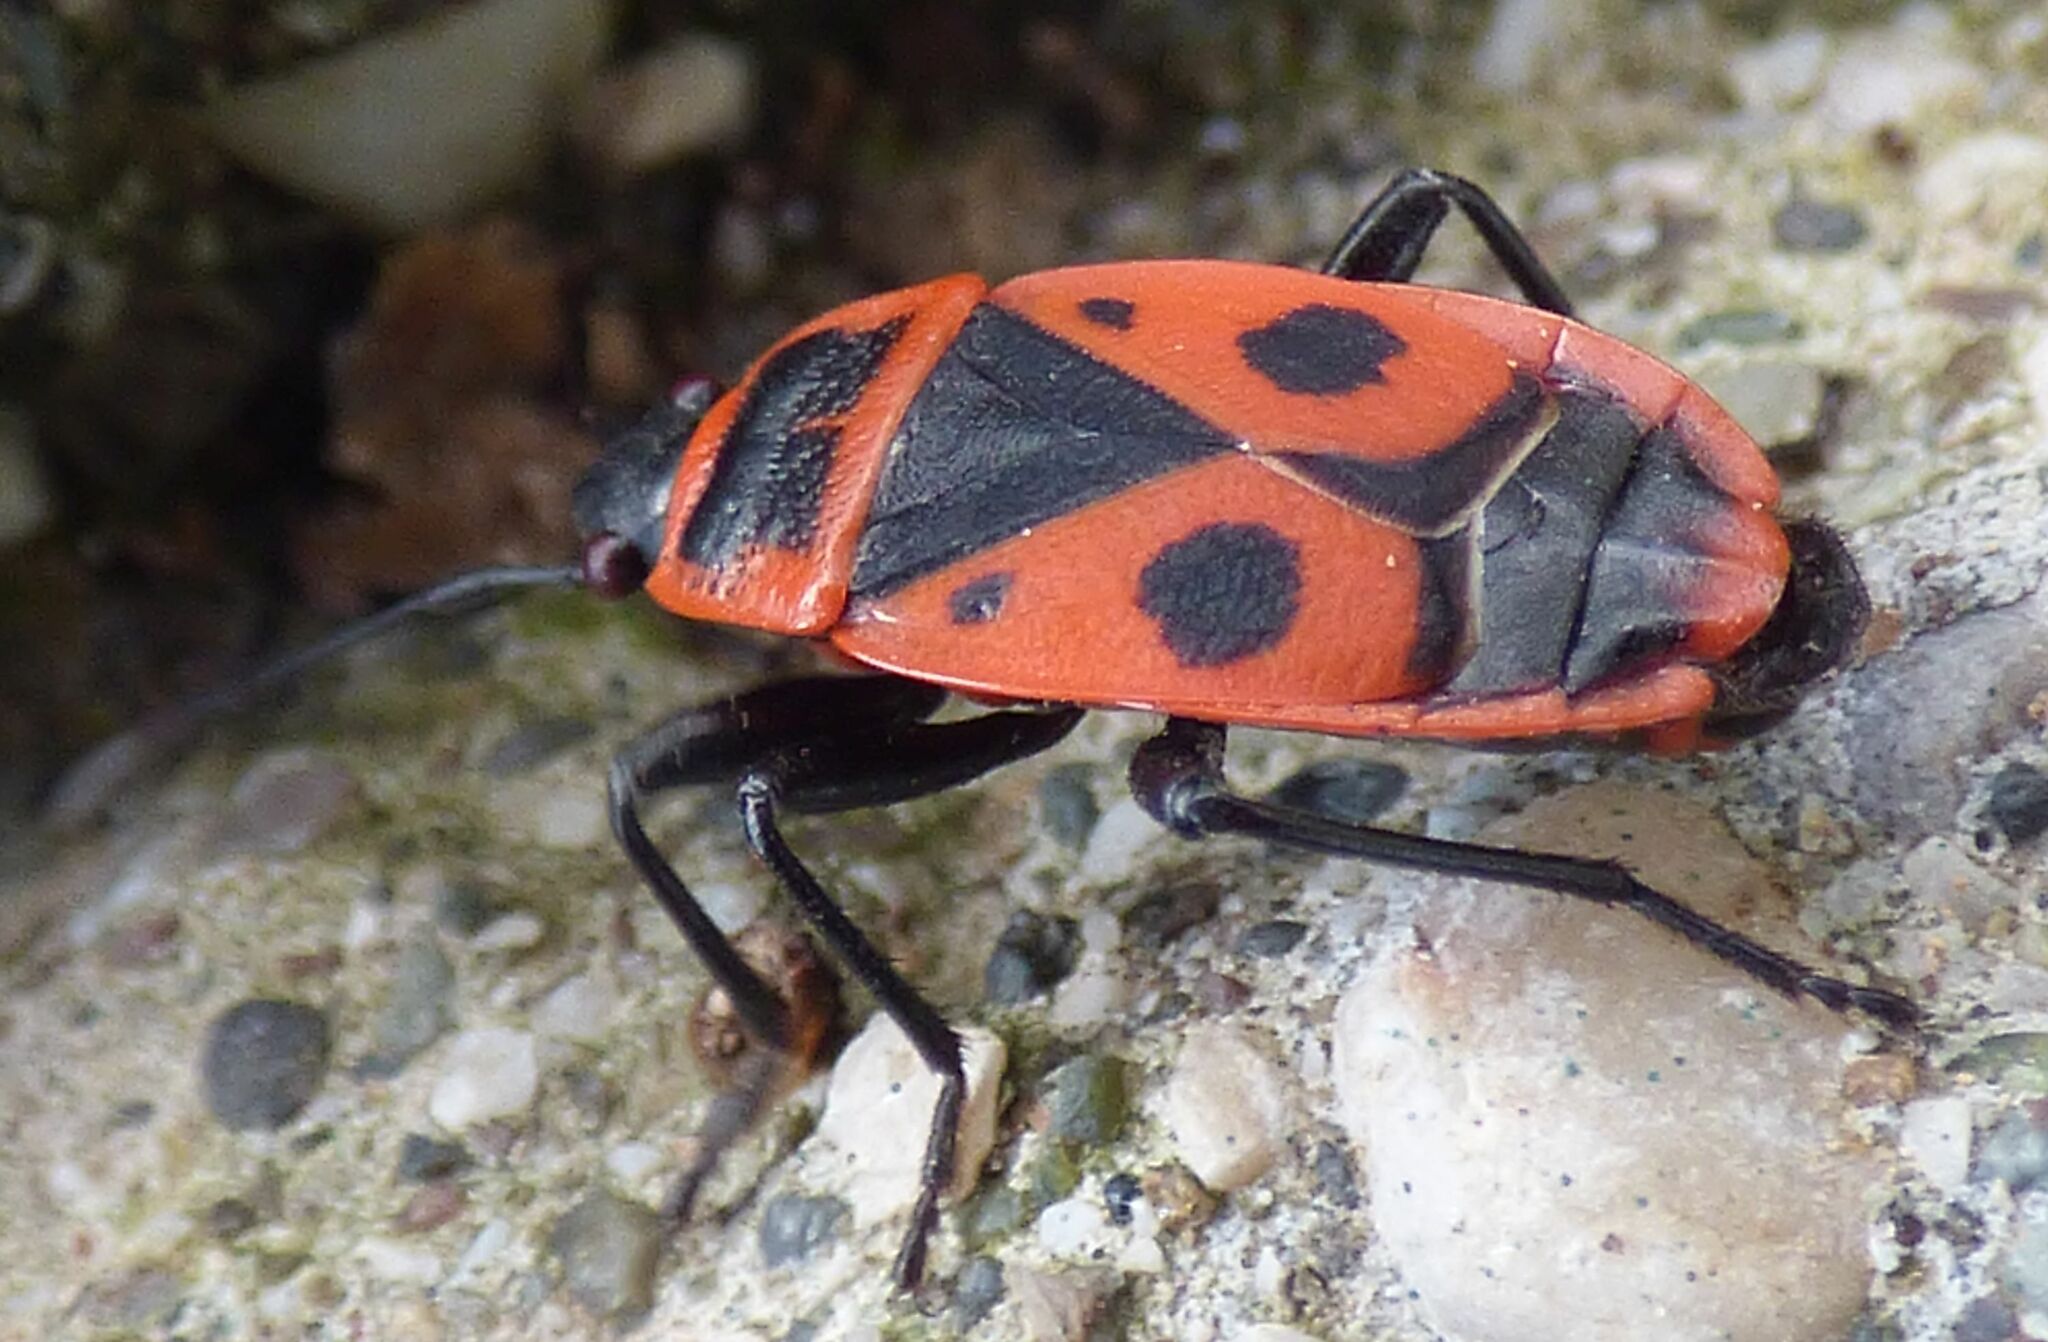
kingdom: Animalia
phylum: Arthropoda
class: Insecta
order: Hemiptera
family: Pyrrhocoridae
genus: Pyrrhocoris
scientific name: Pyrrhocoris apterus
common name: Firebug
